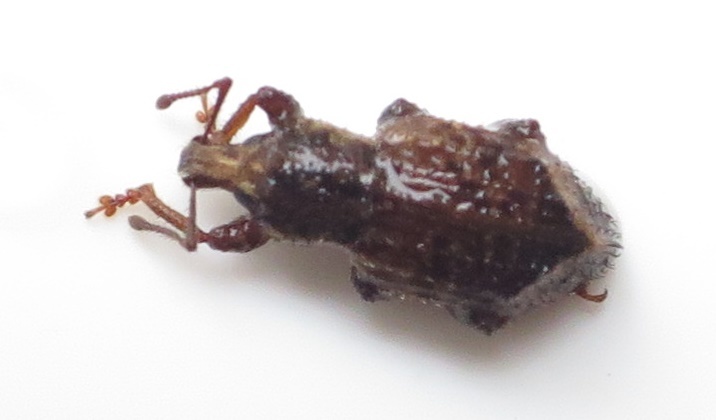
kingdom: Animalia
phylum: Arthropoda
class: Insecta
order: Coleoptera
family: Curculionidae
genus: Chalepistes
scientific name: Chalepistes compressus
